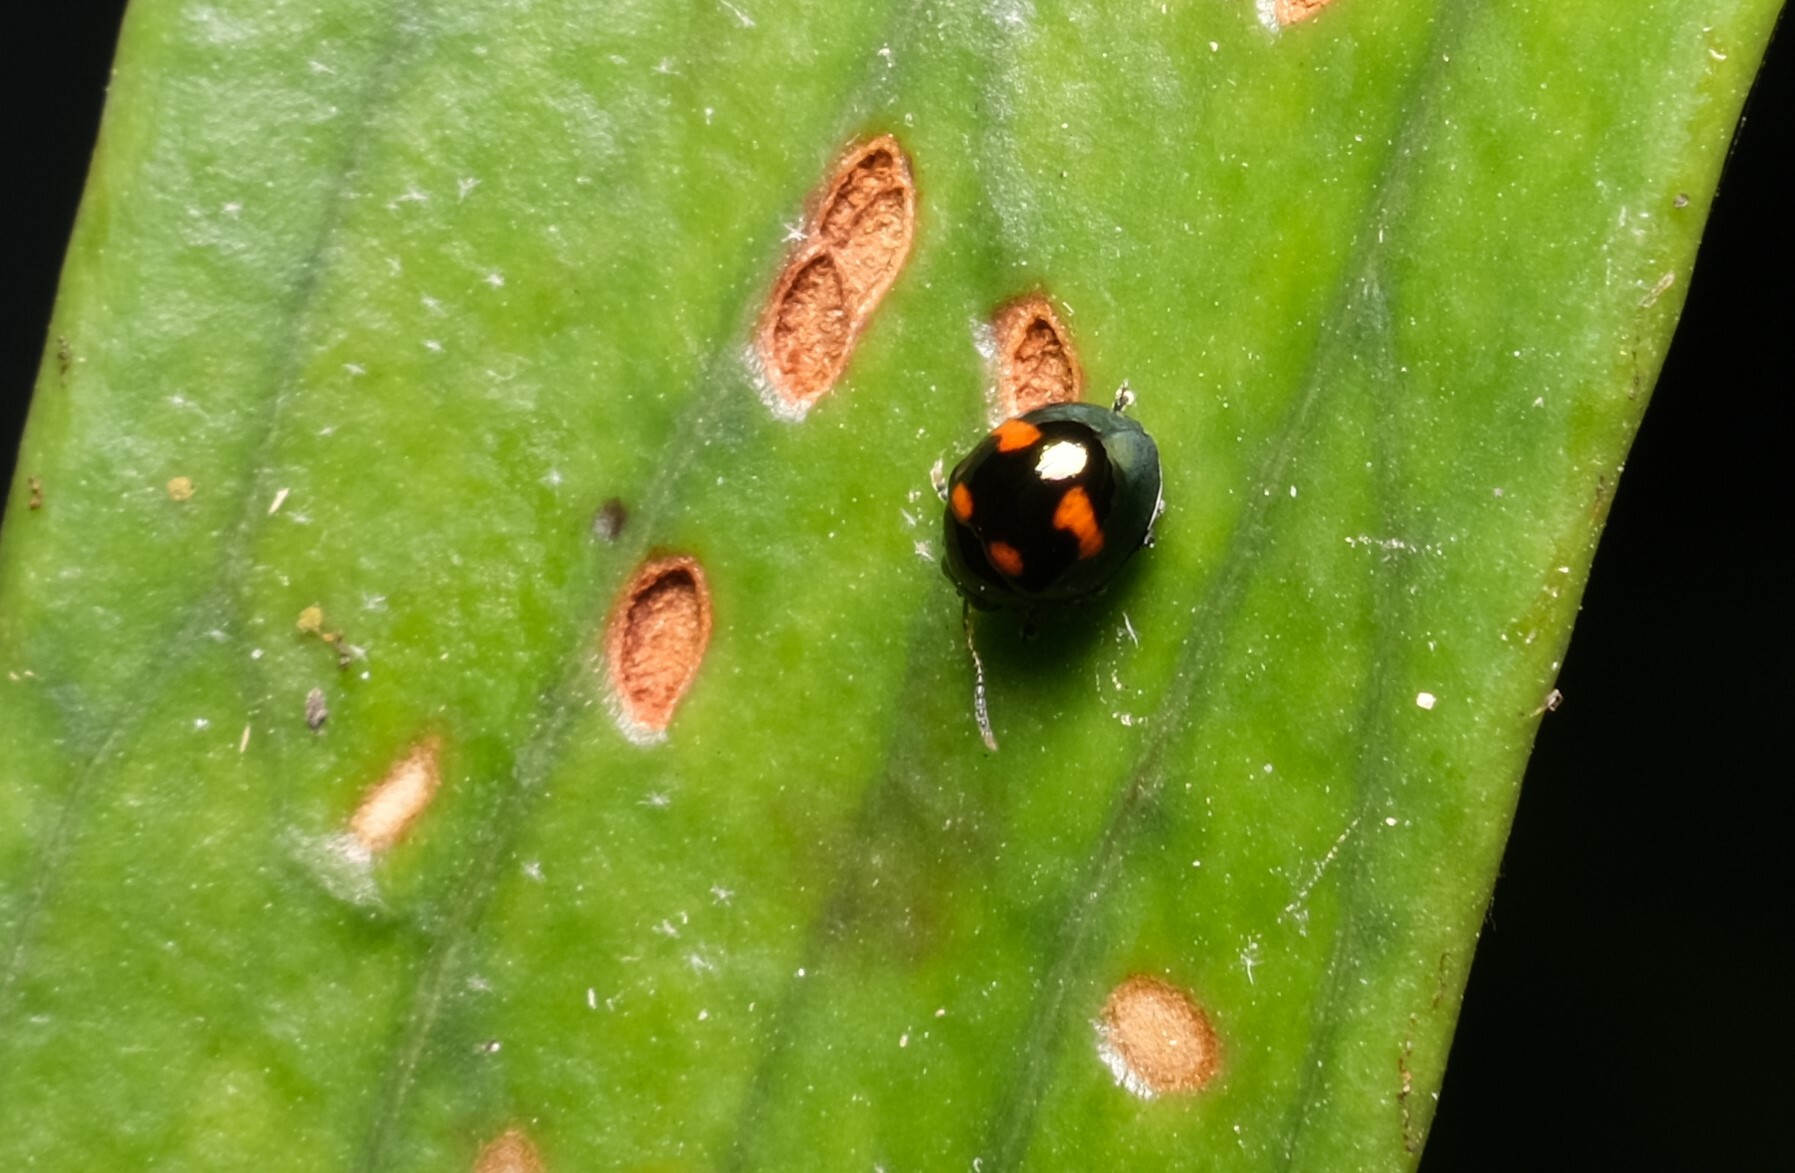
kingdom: Animalia
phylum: Arthropoda
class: Insecta
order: Coleoptera
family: Chrysomelidae
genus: Halticorcus
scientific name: Halticorcus
